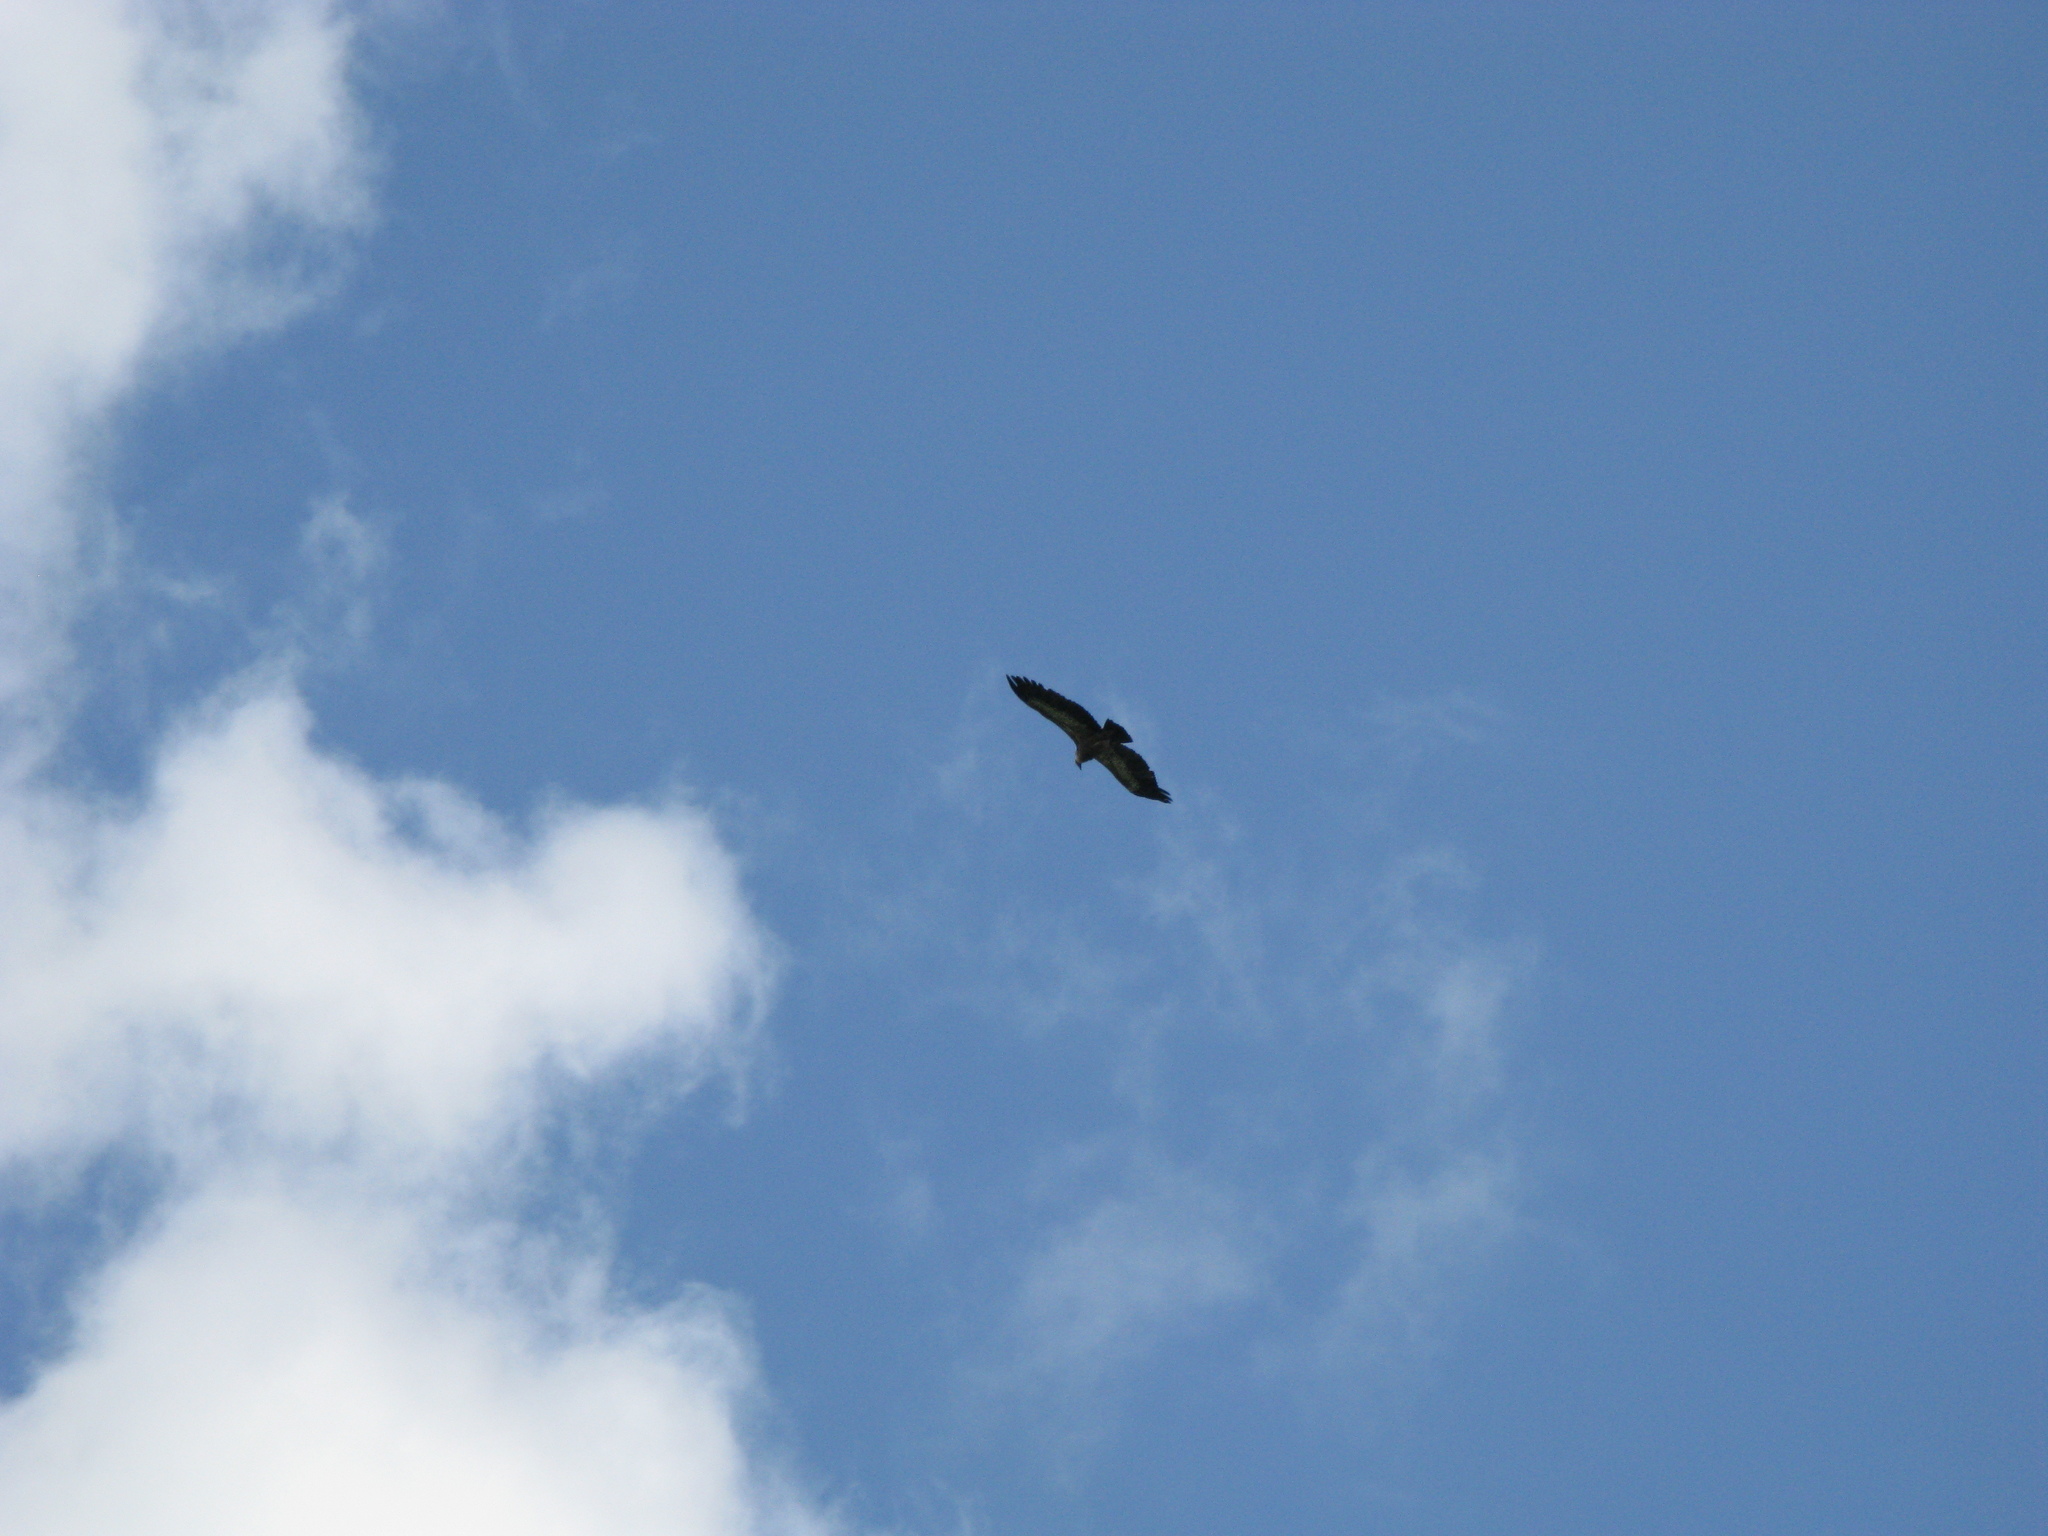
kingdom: Animalia
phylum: Chordata
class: Aves
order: Accipitriformes
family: Accipitridae
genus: Gyps
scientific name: Gyps fulvus
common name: Griffon vulture
